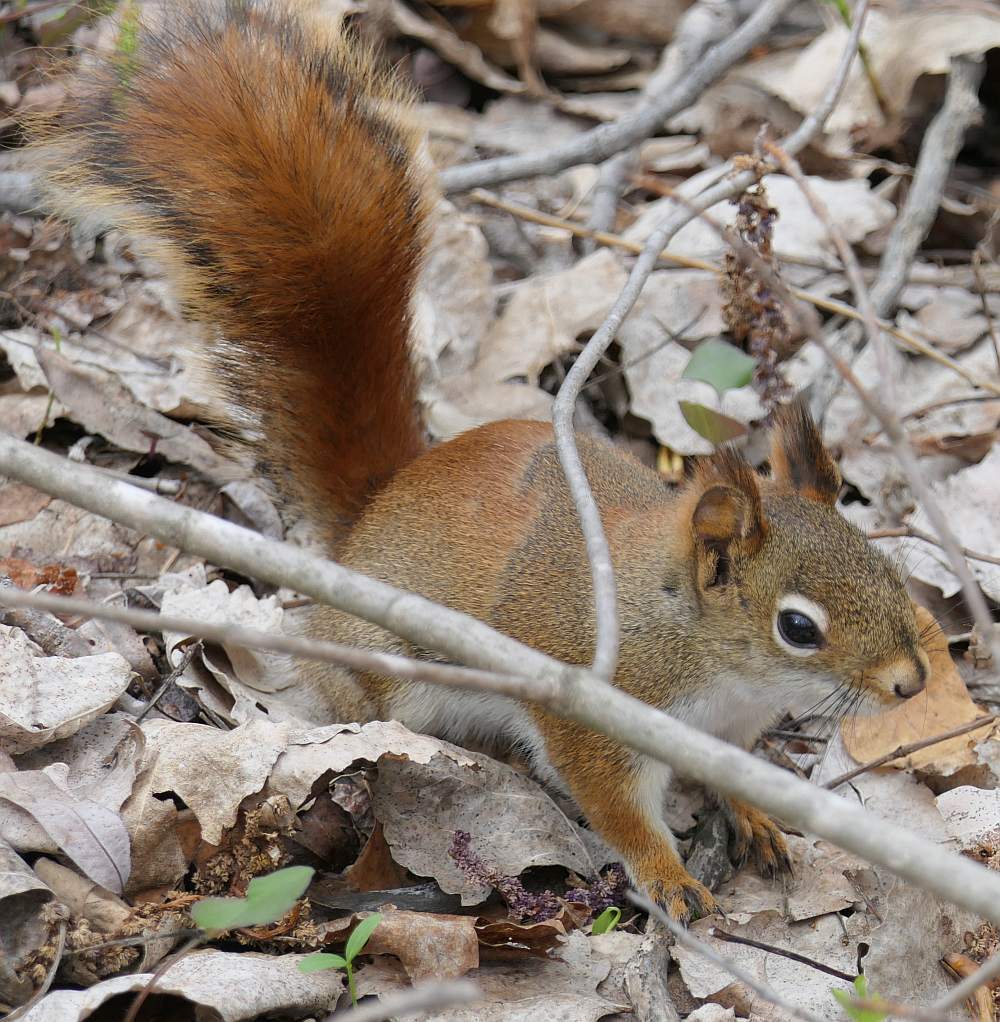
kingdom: Animalia
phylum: Chordata
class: Mammalia
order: Rodentia
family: Sciuridae
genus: Tamiasciurus
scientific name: Tamiasciurus hudsonicus
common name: Red squirrel
